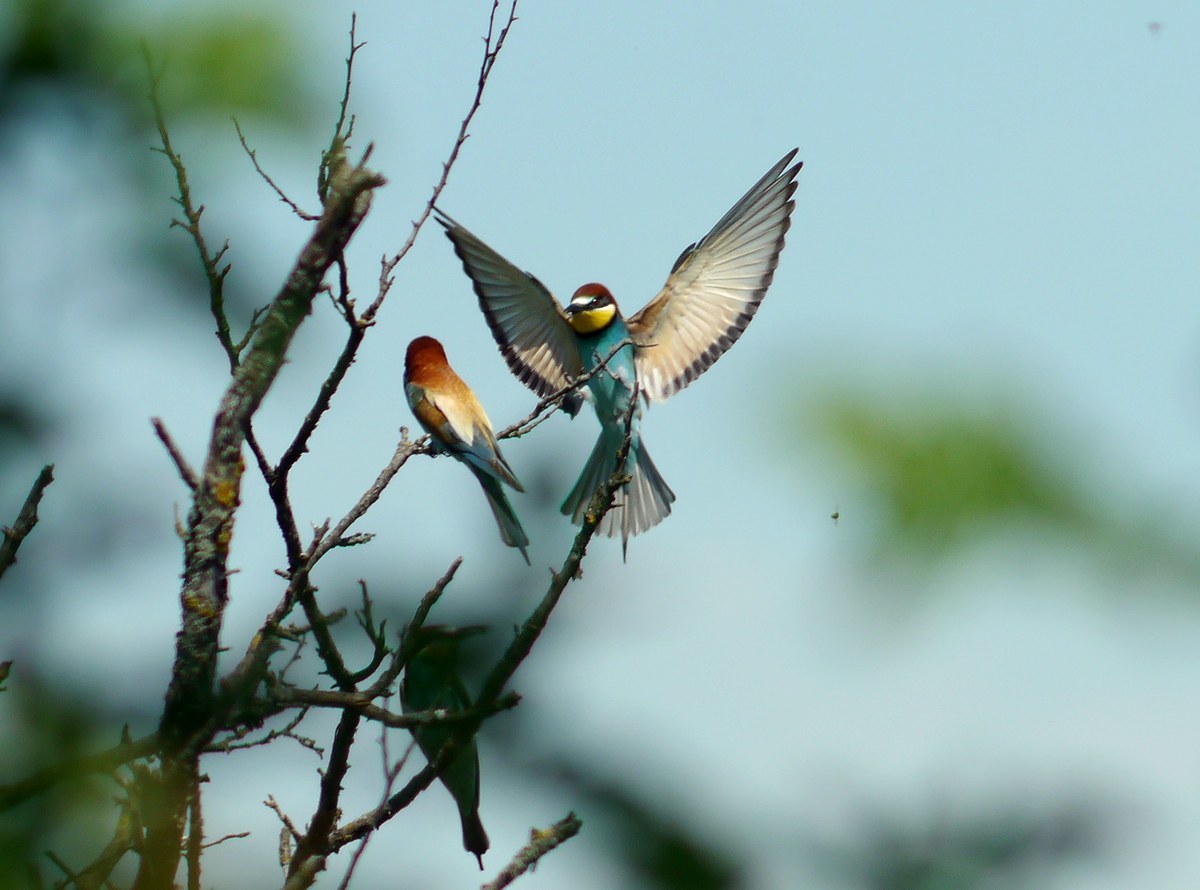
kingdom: Animalia
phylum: Chordata
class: Aves
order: Coraciiformes
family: Meropidae
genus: Merops
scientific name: Merops apiaster
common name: European bee-eater
